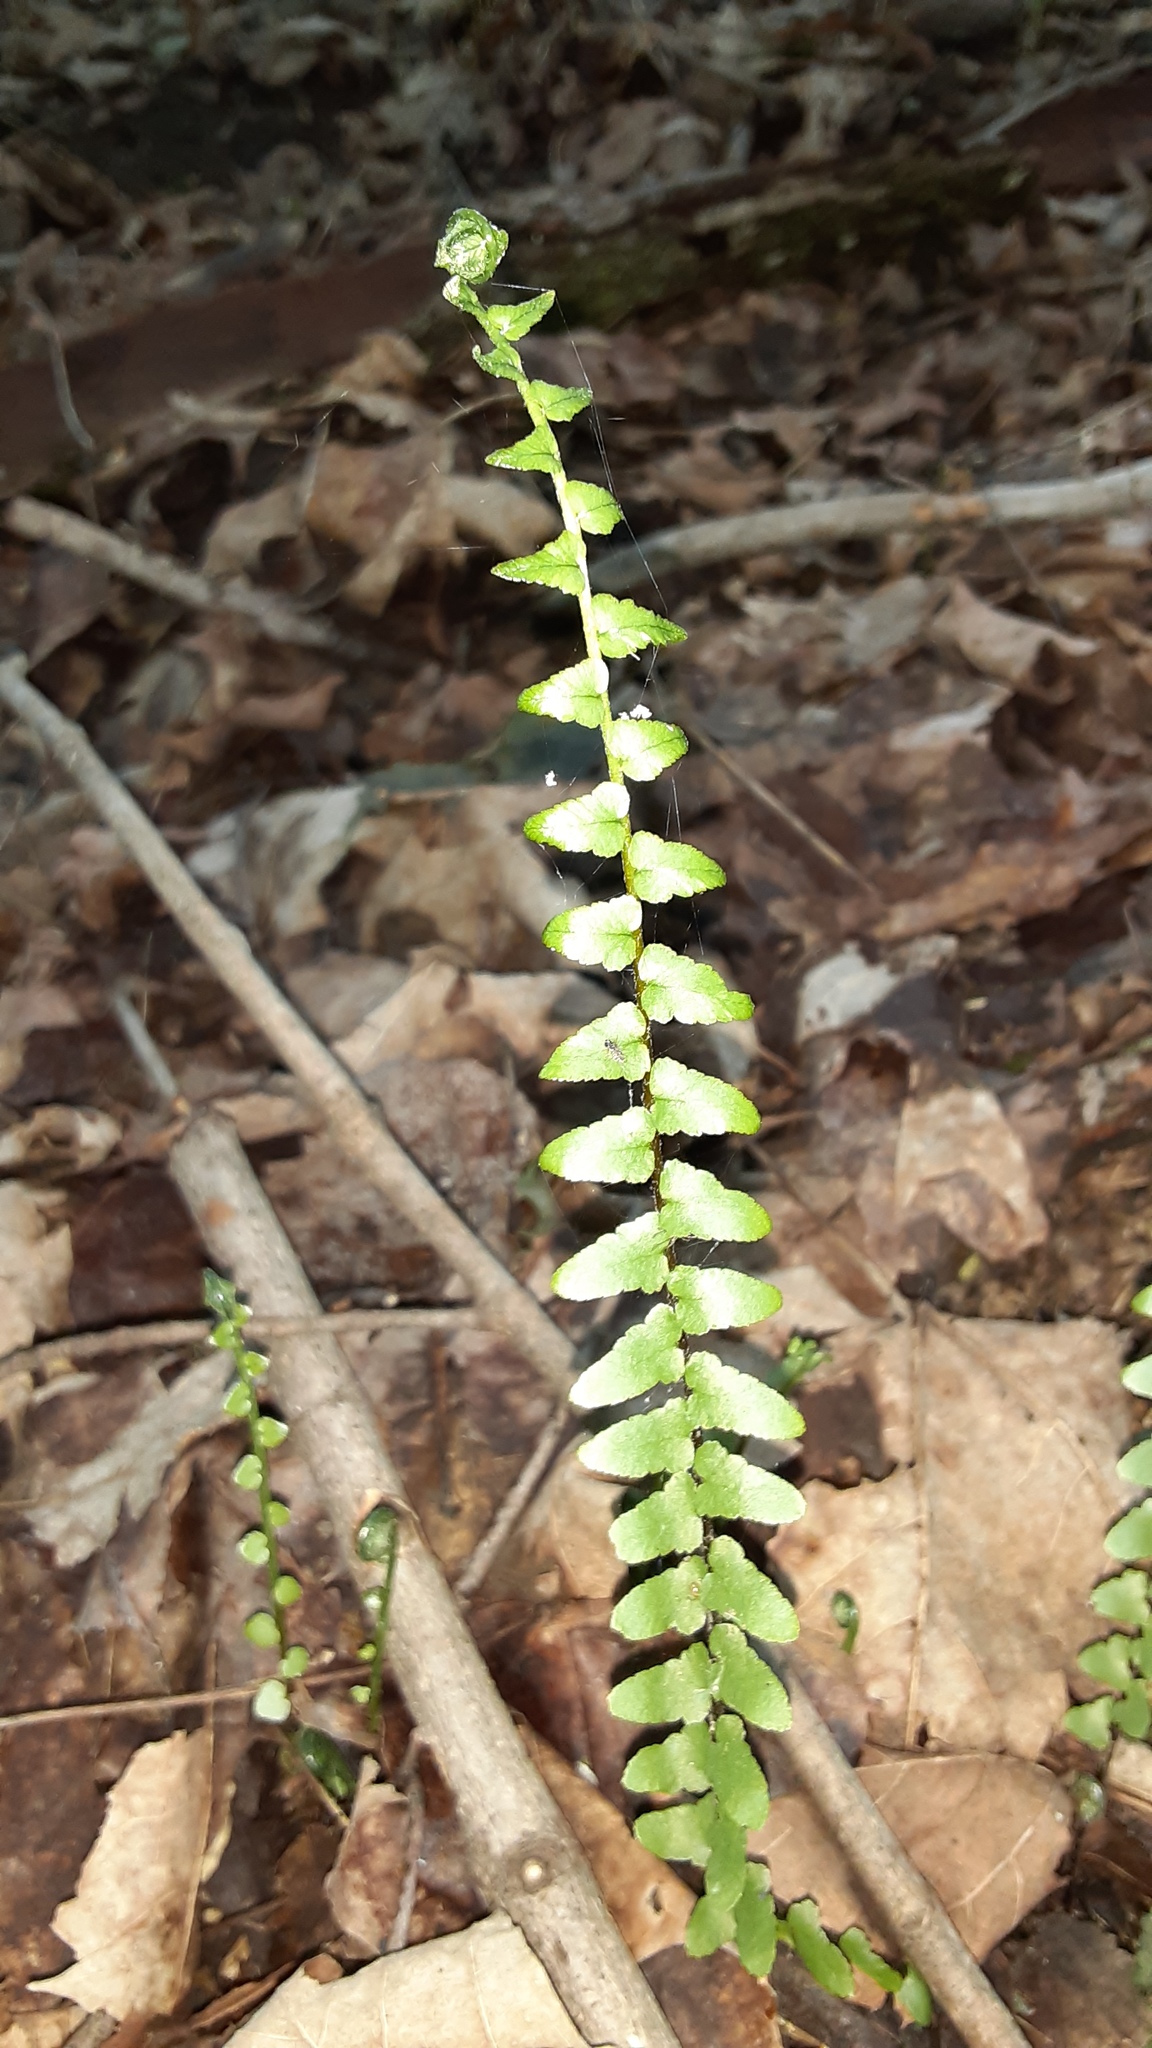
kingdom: Plantae
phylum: Tracheophyta
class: Polypodiopsida
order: Polypodiales
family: Aspleniaceae
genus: Asplenium
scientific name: Asplenium platyneuron
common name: Ebony spleenwort
